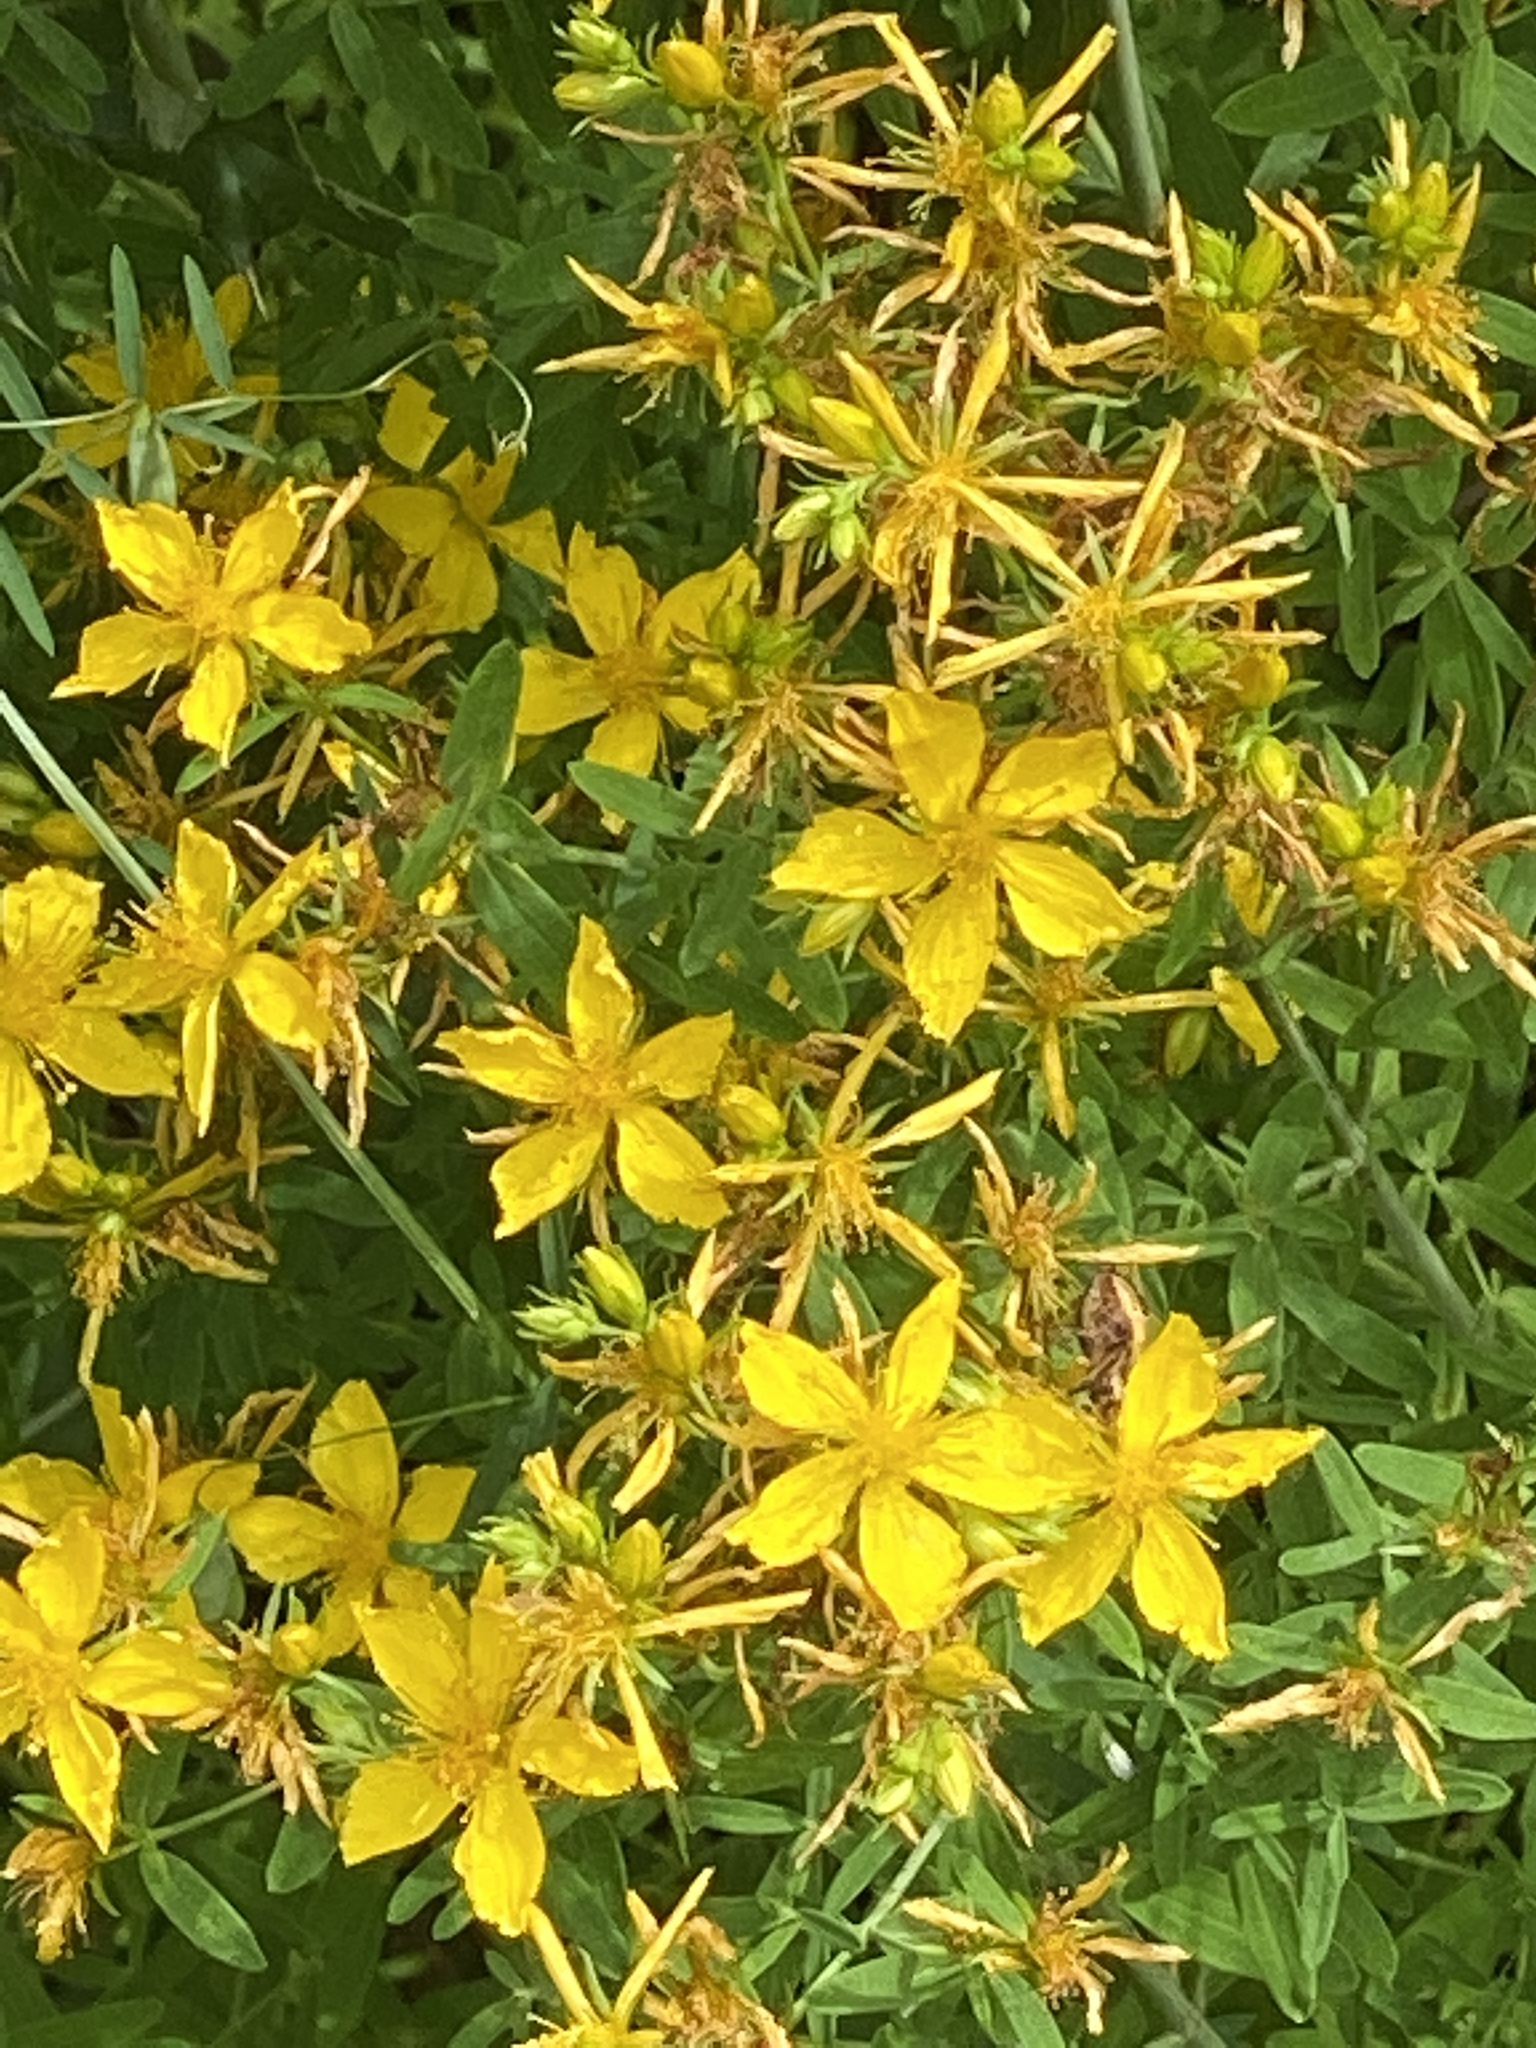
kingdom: Plantae
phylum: Tracheophyta
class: Magnoliopsida
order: Malpighiales
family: Hypericaceae
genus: Hypericum
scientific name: Hypericum perforatum
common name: Common st. johnswort
